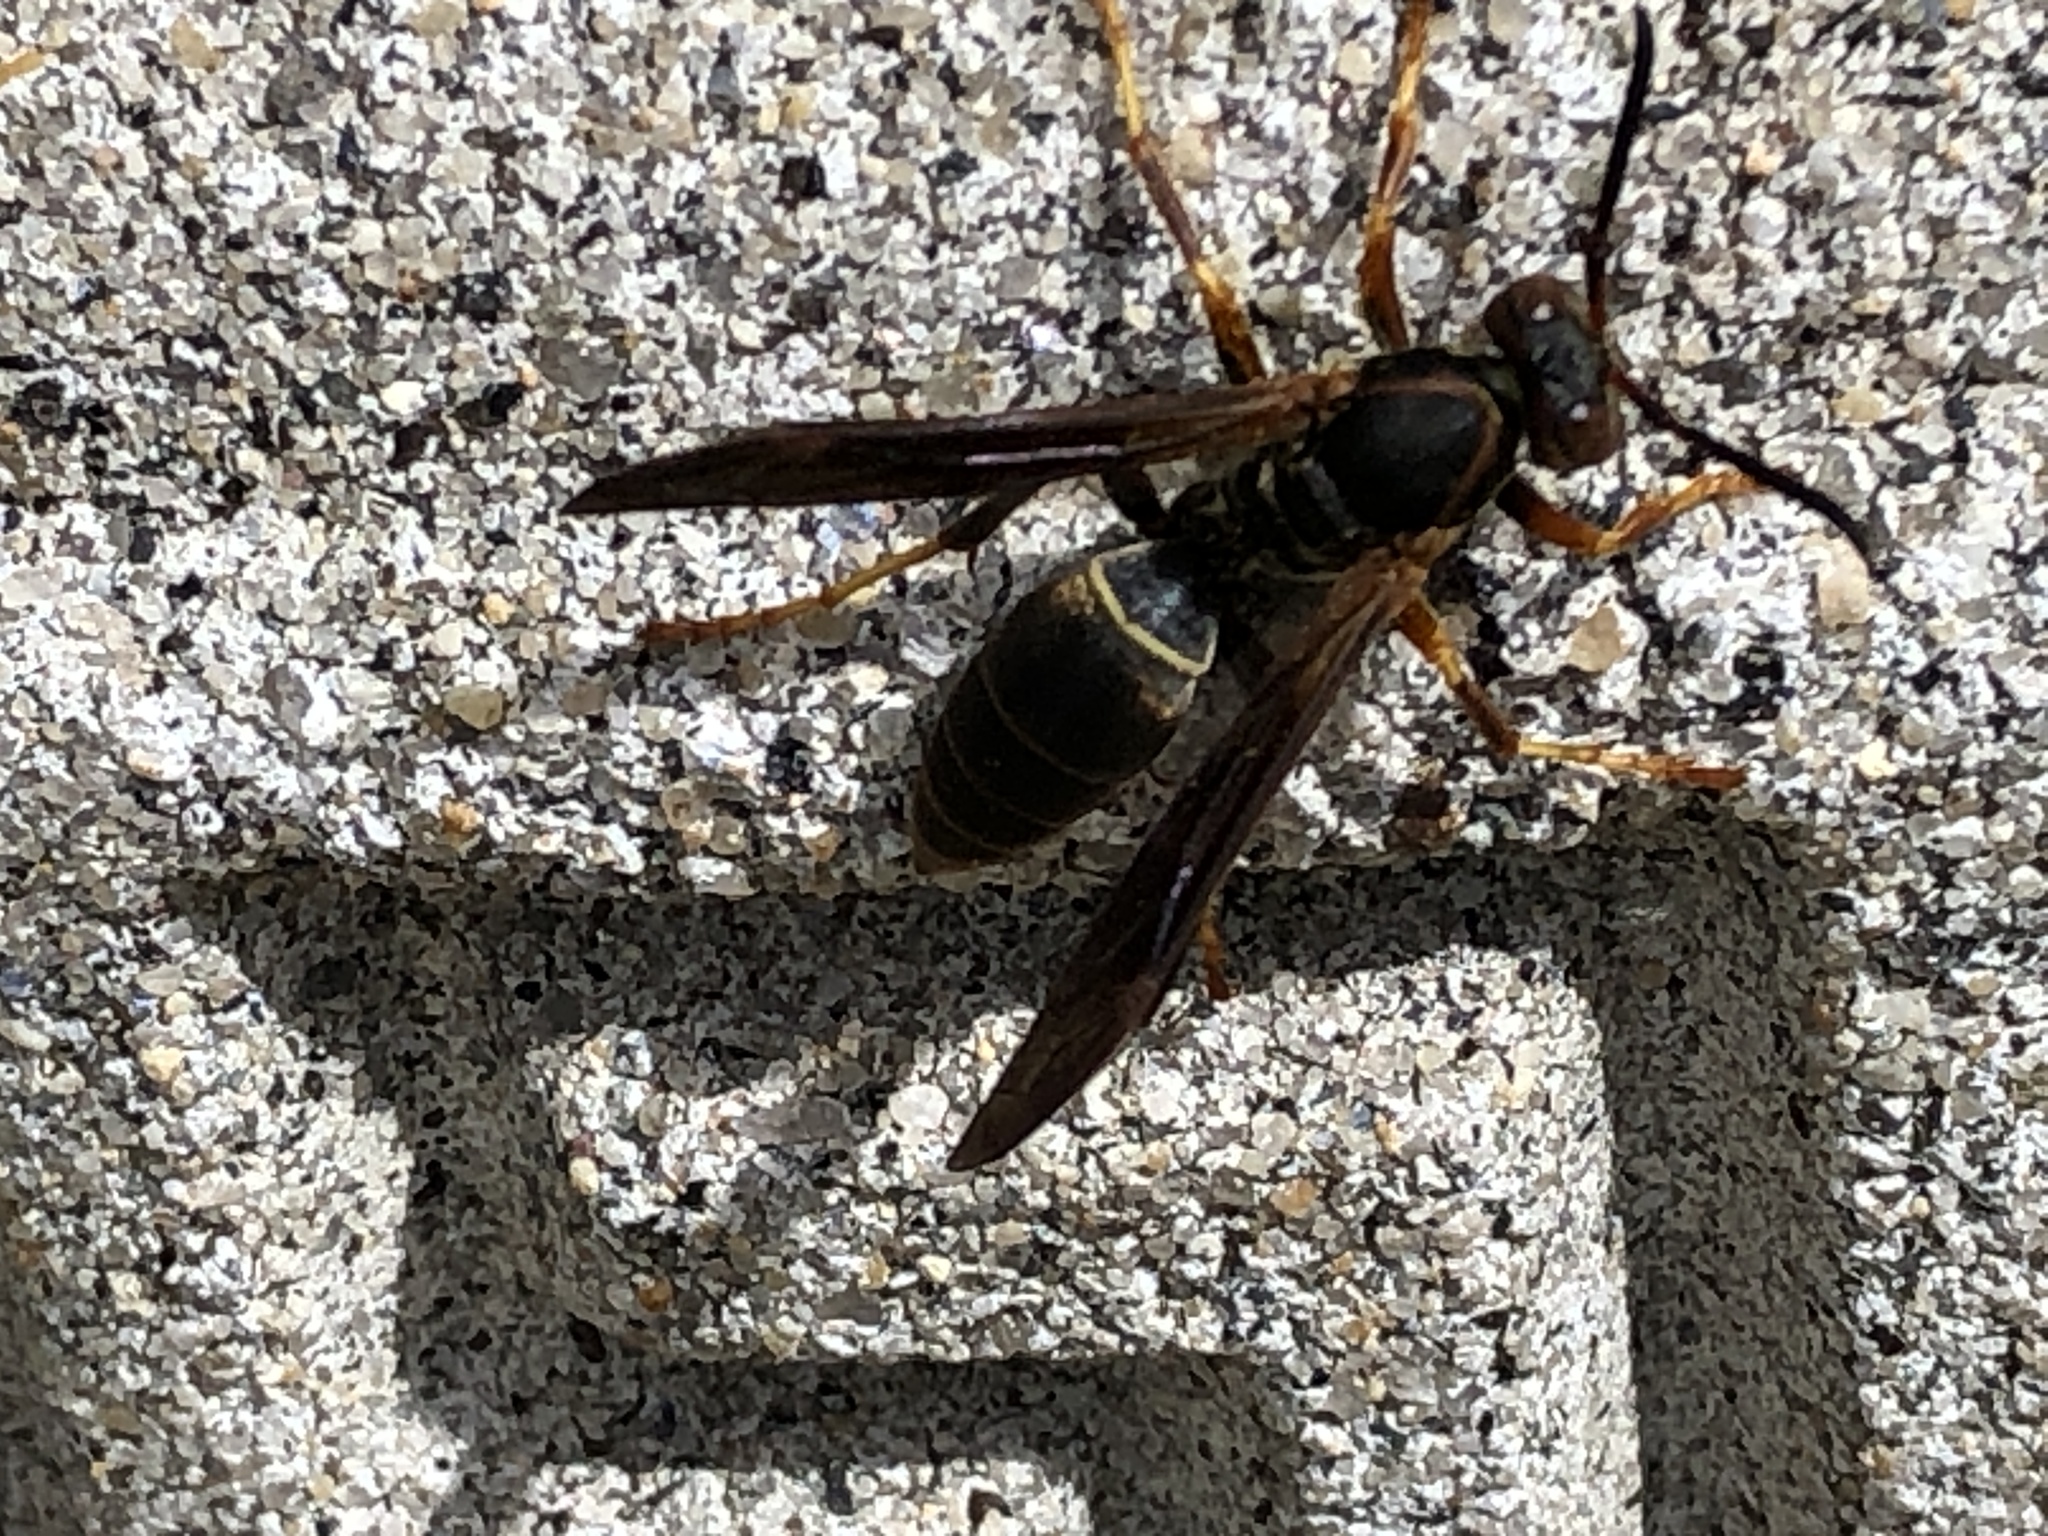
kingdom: Animalia
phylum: Arthropoda
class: Insecta
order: Hymenoptera
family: Eumenidae
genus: Polistes
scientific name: Polistes fuscatus
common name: Dark paper wasp
